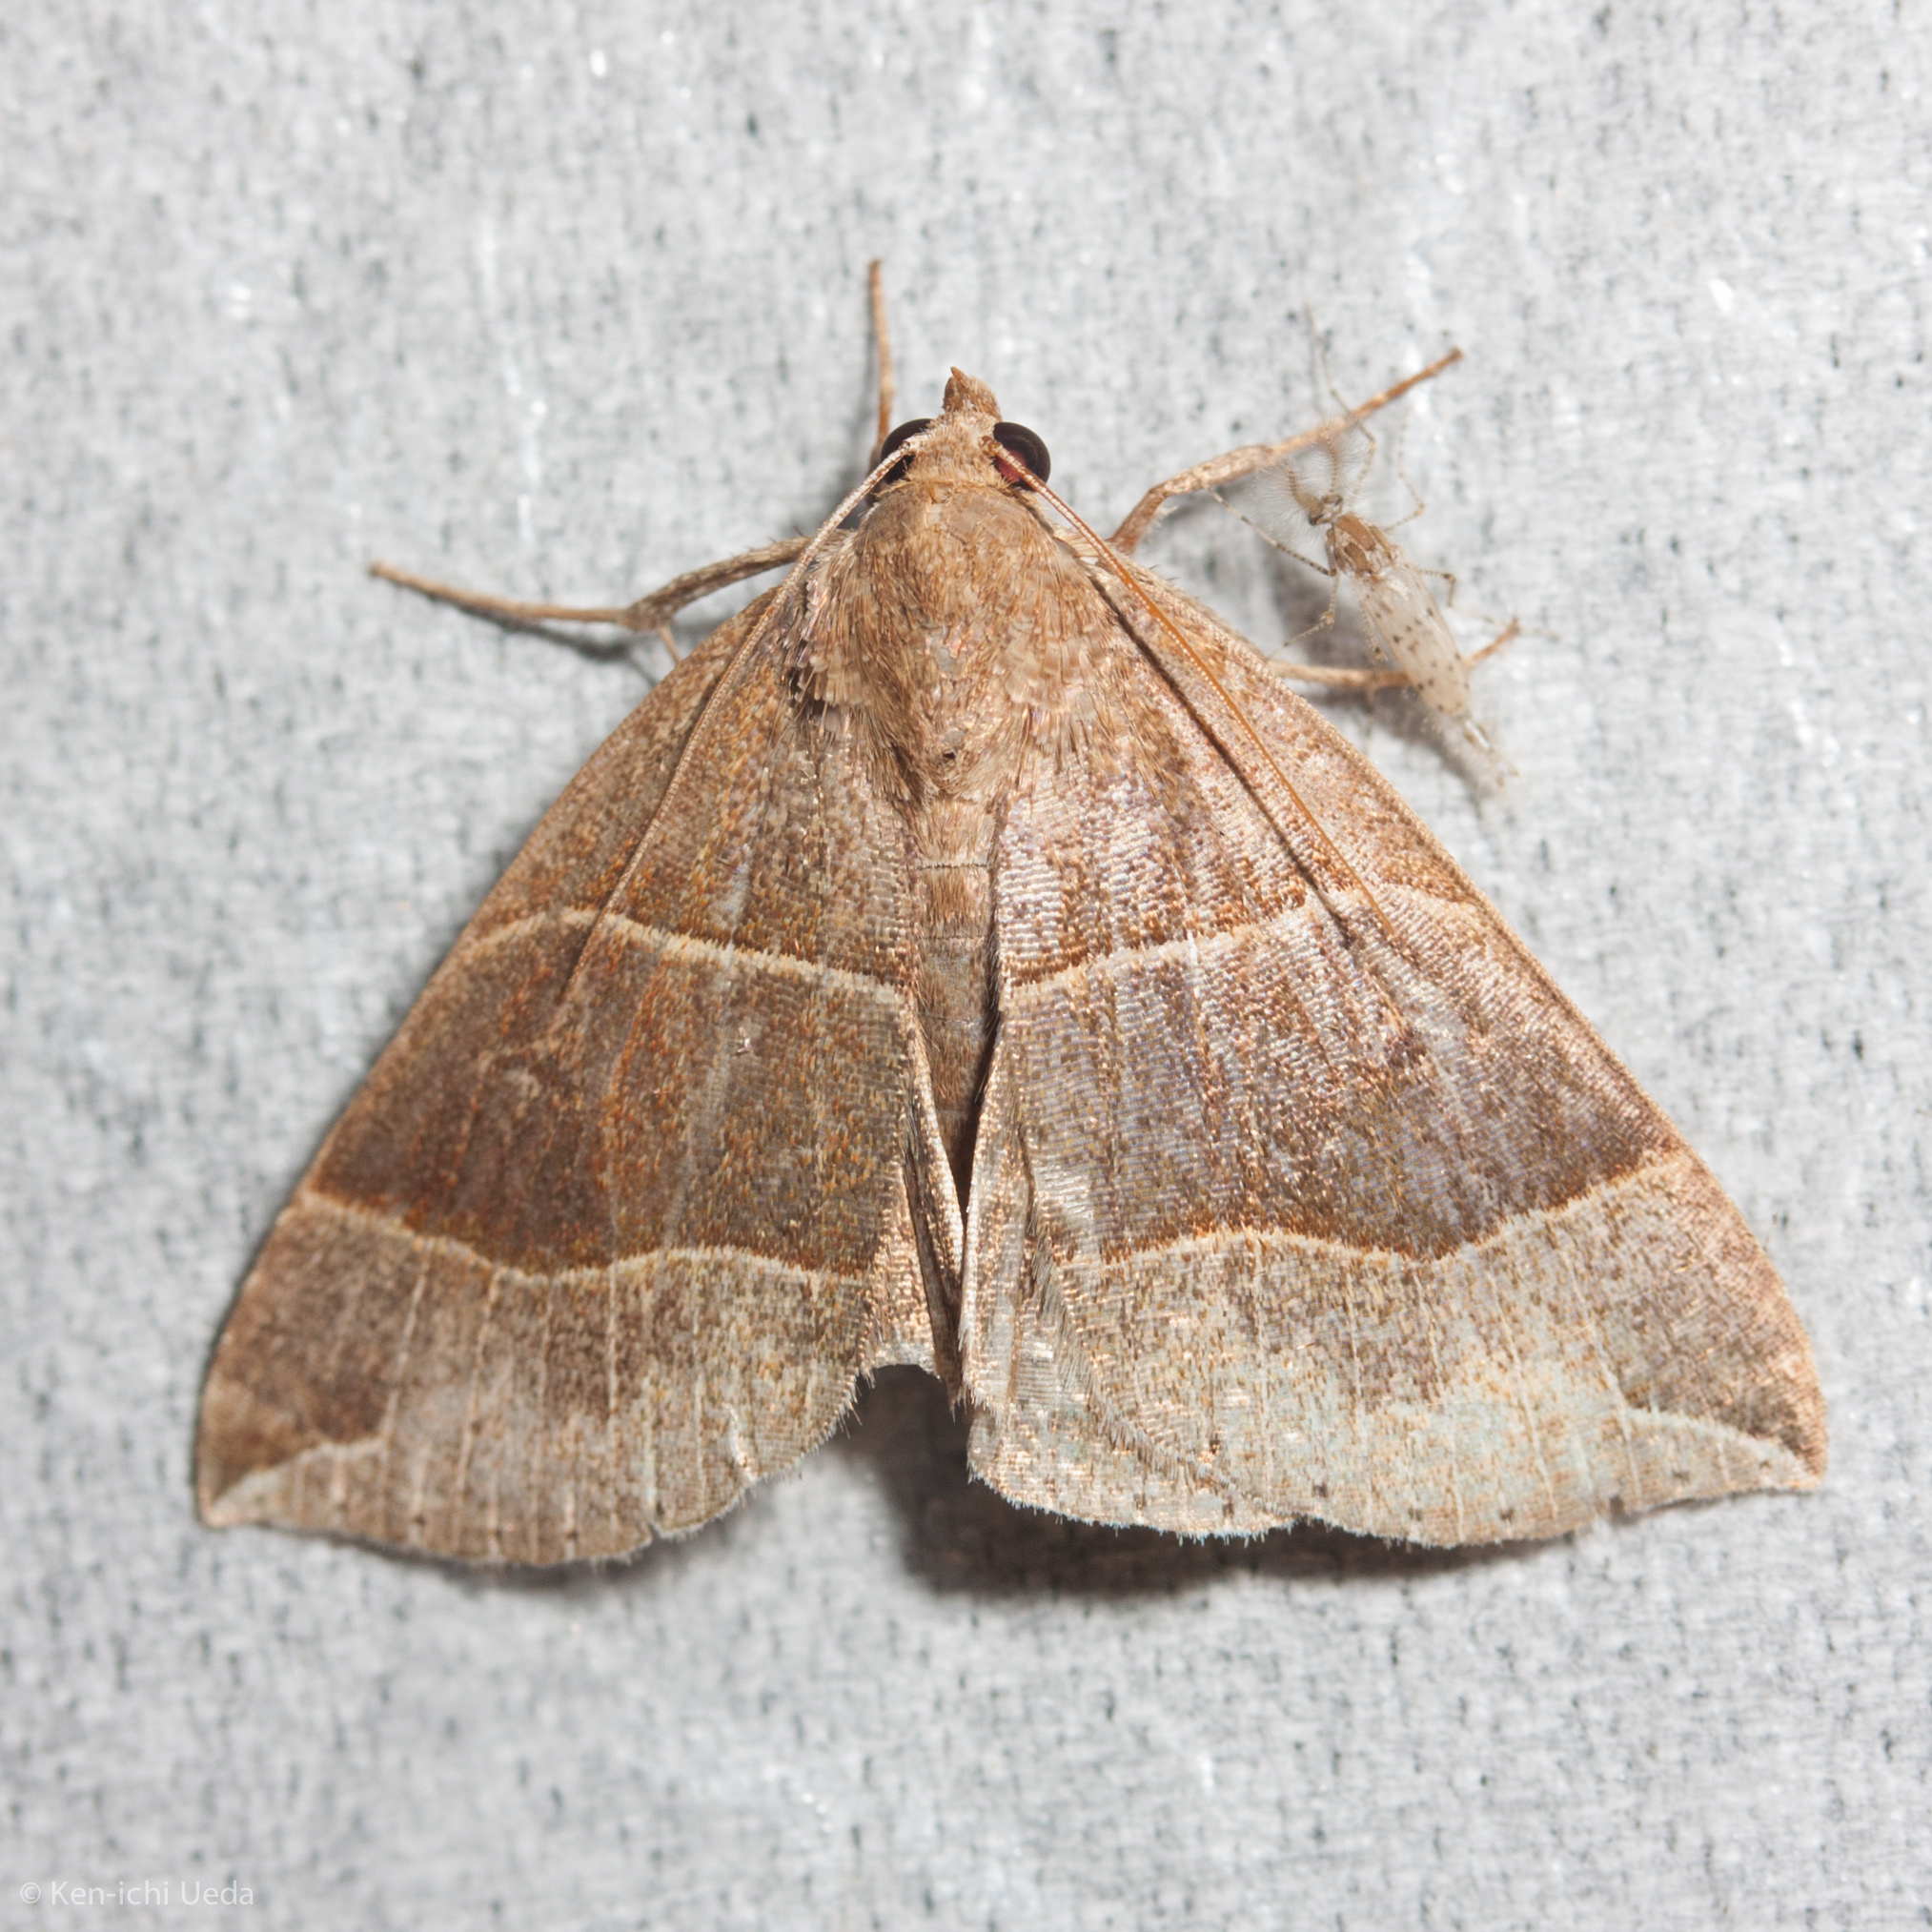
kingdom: Animalia
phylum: Arthropoda
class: Insecta
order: Lepidoptera
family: Erebidae
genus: Parallelia
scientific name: Parallelia bistriaris
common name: Maple looper moth
